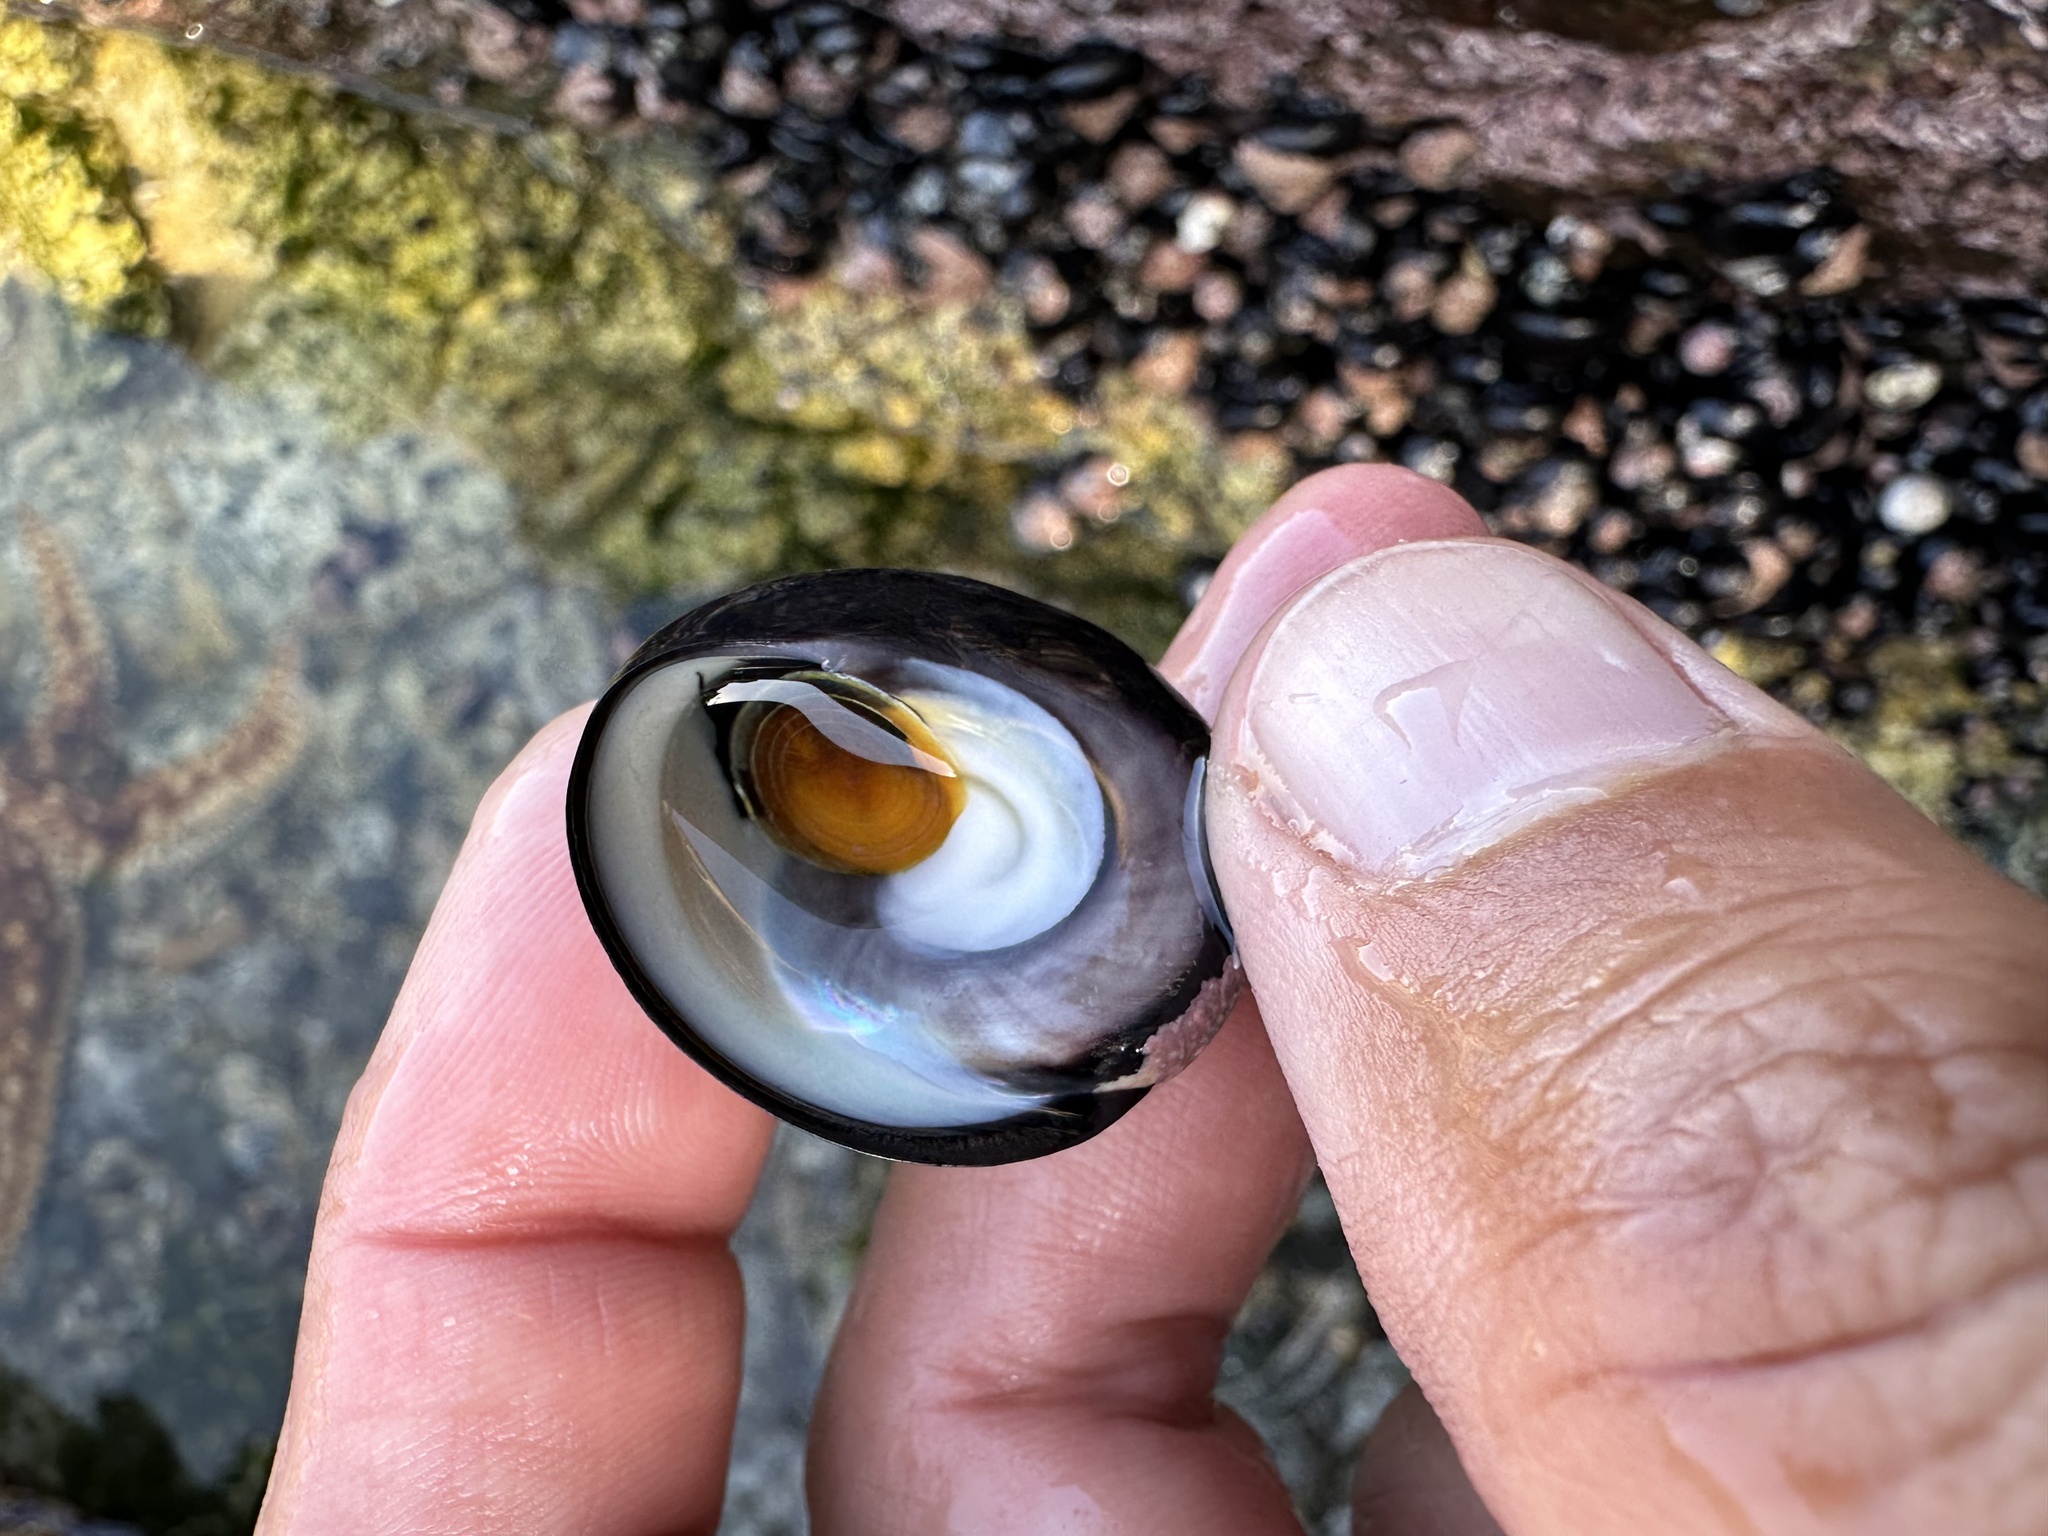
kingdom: Animalia
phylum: Mollusca
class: Gastropoda
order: Trochida
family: Tegulidae
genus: Tegula
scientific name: Tegula atra
